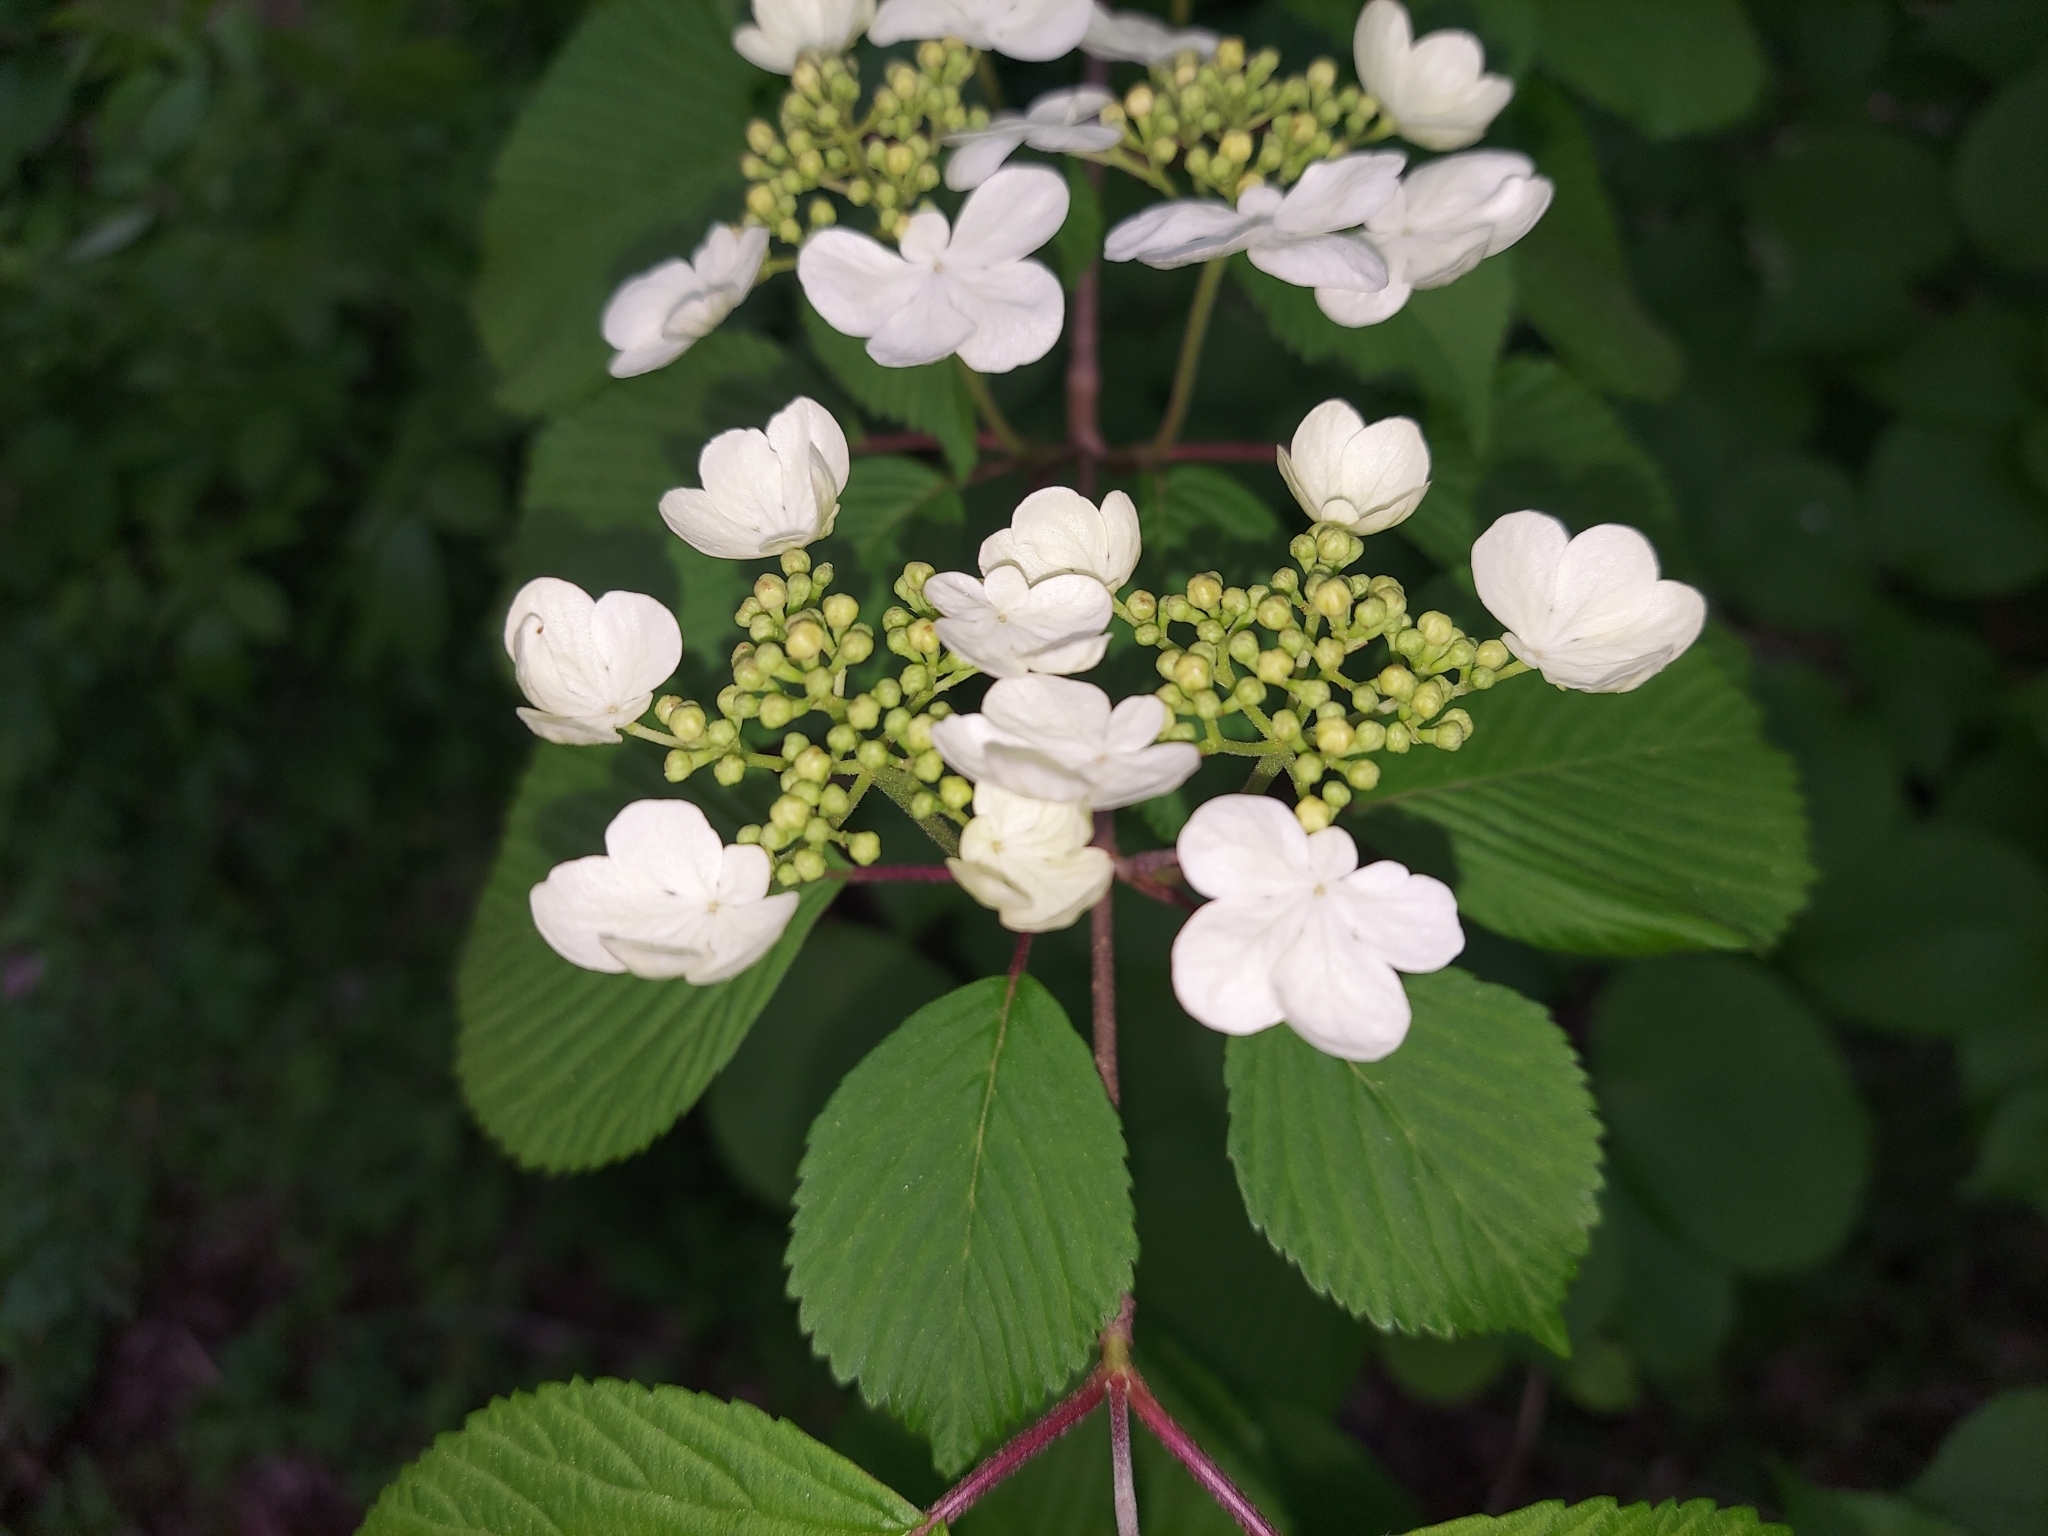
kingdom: Plantae
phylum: Tracheophyta
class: Magnoliopsida
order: Dipsacales
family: Viburnaceae
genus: Viburnum
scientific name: Viburnum plicatum
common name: Japanese snowball
